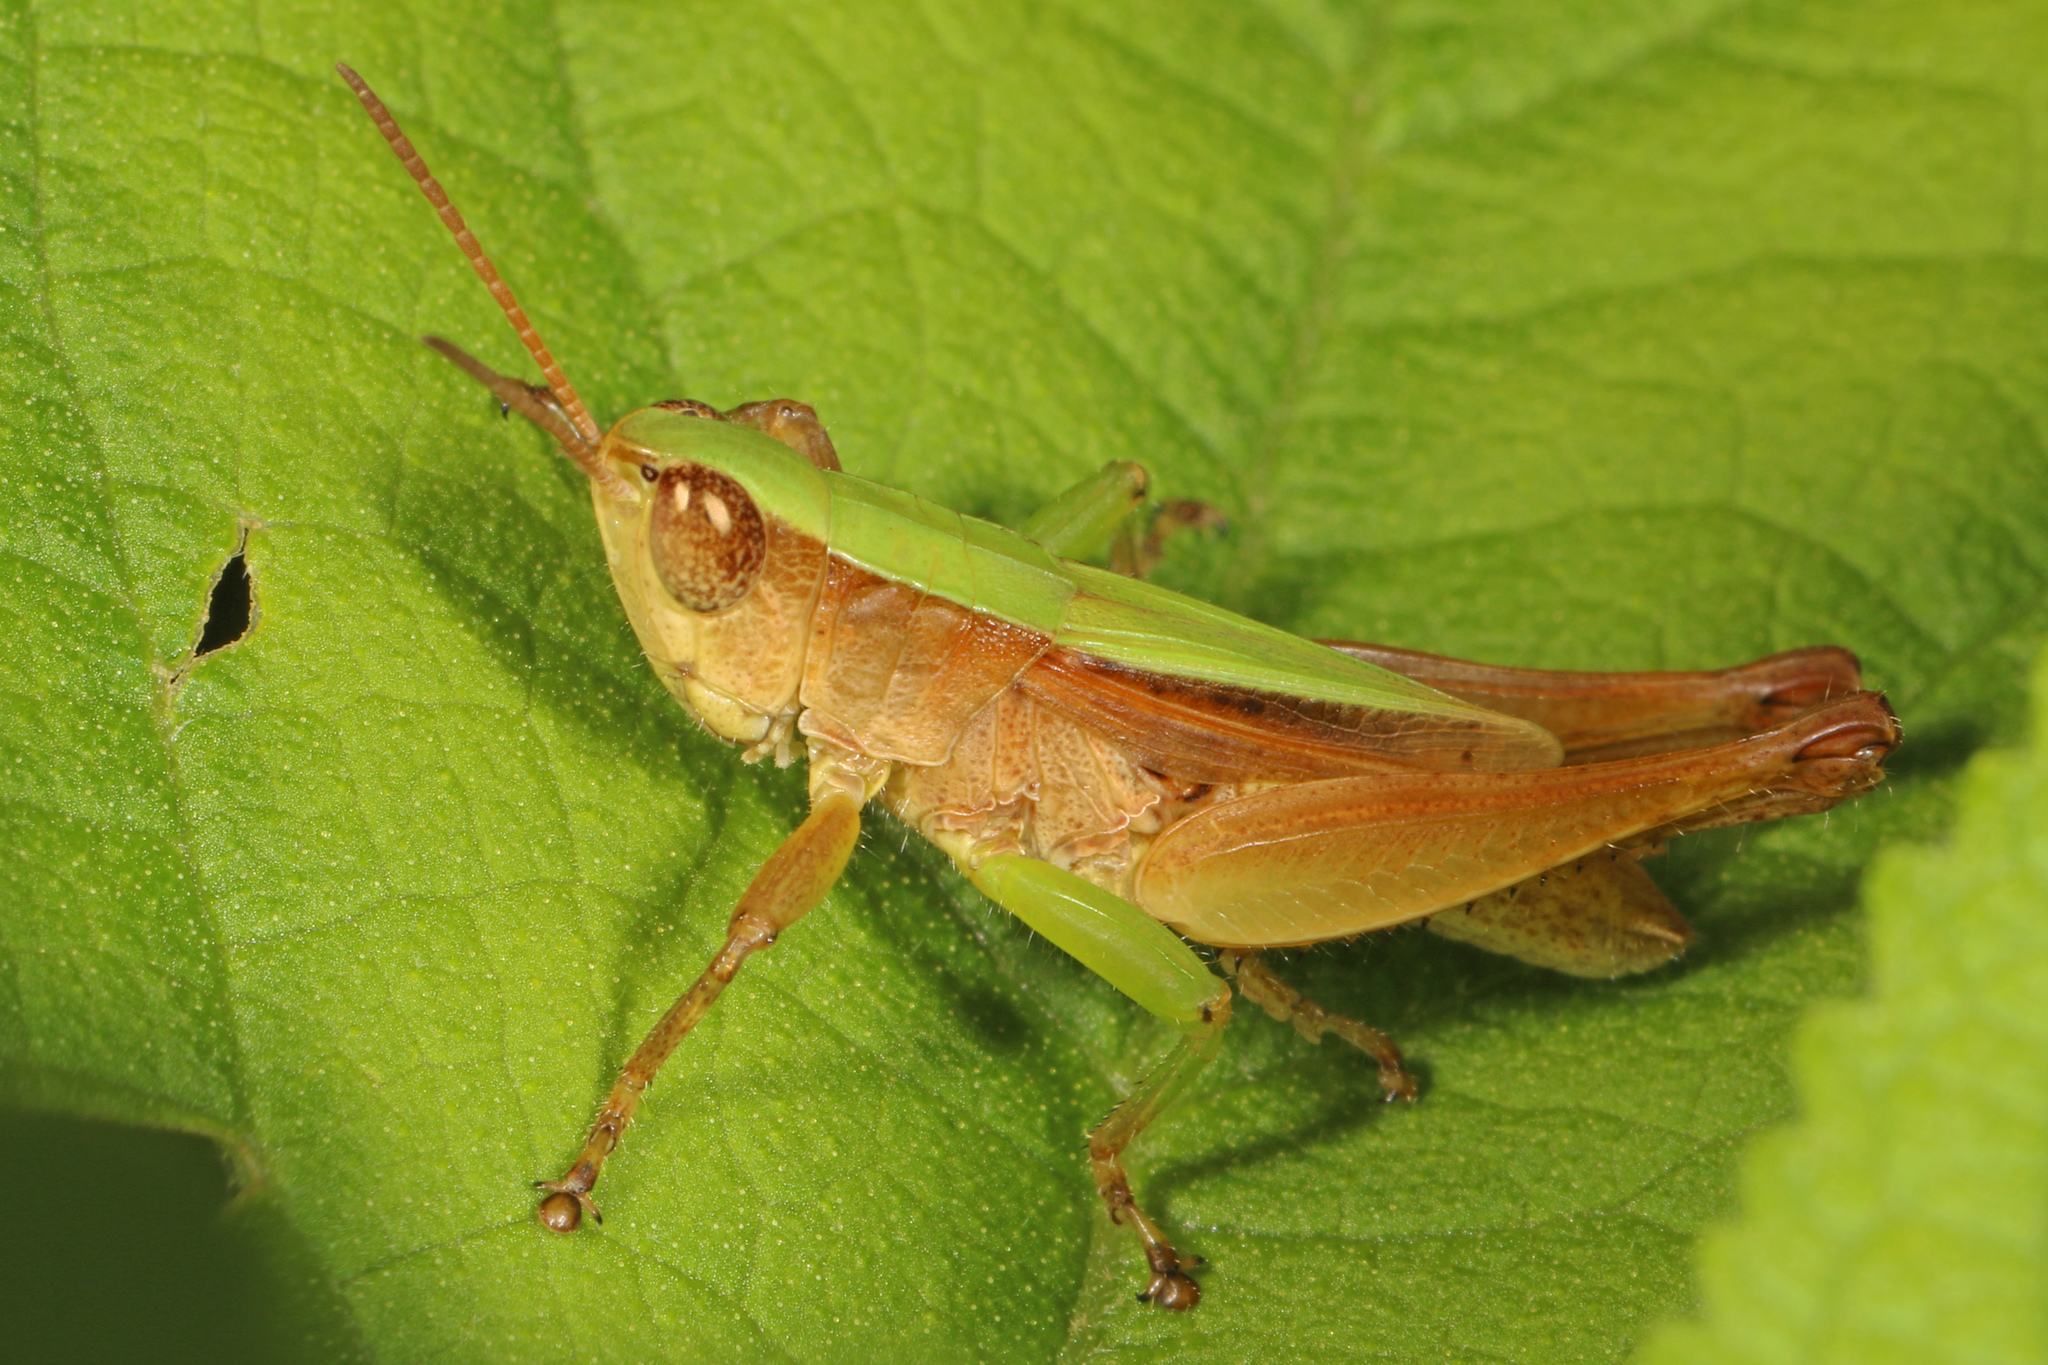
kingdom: Animalia
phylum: Arthropoda
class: Insecta
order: Orthoptera
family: Acrididae
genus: Dichromorpha
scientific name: Dichromorpha viridis
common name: Short-winged green grasshopper
